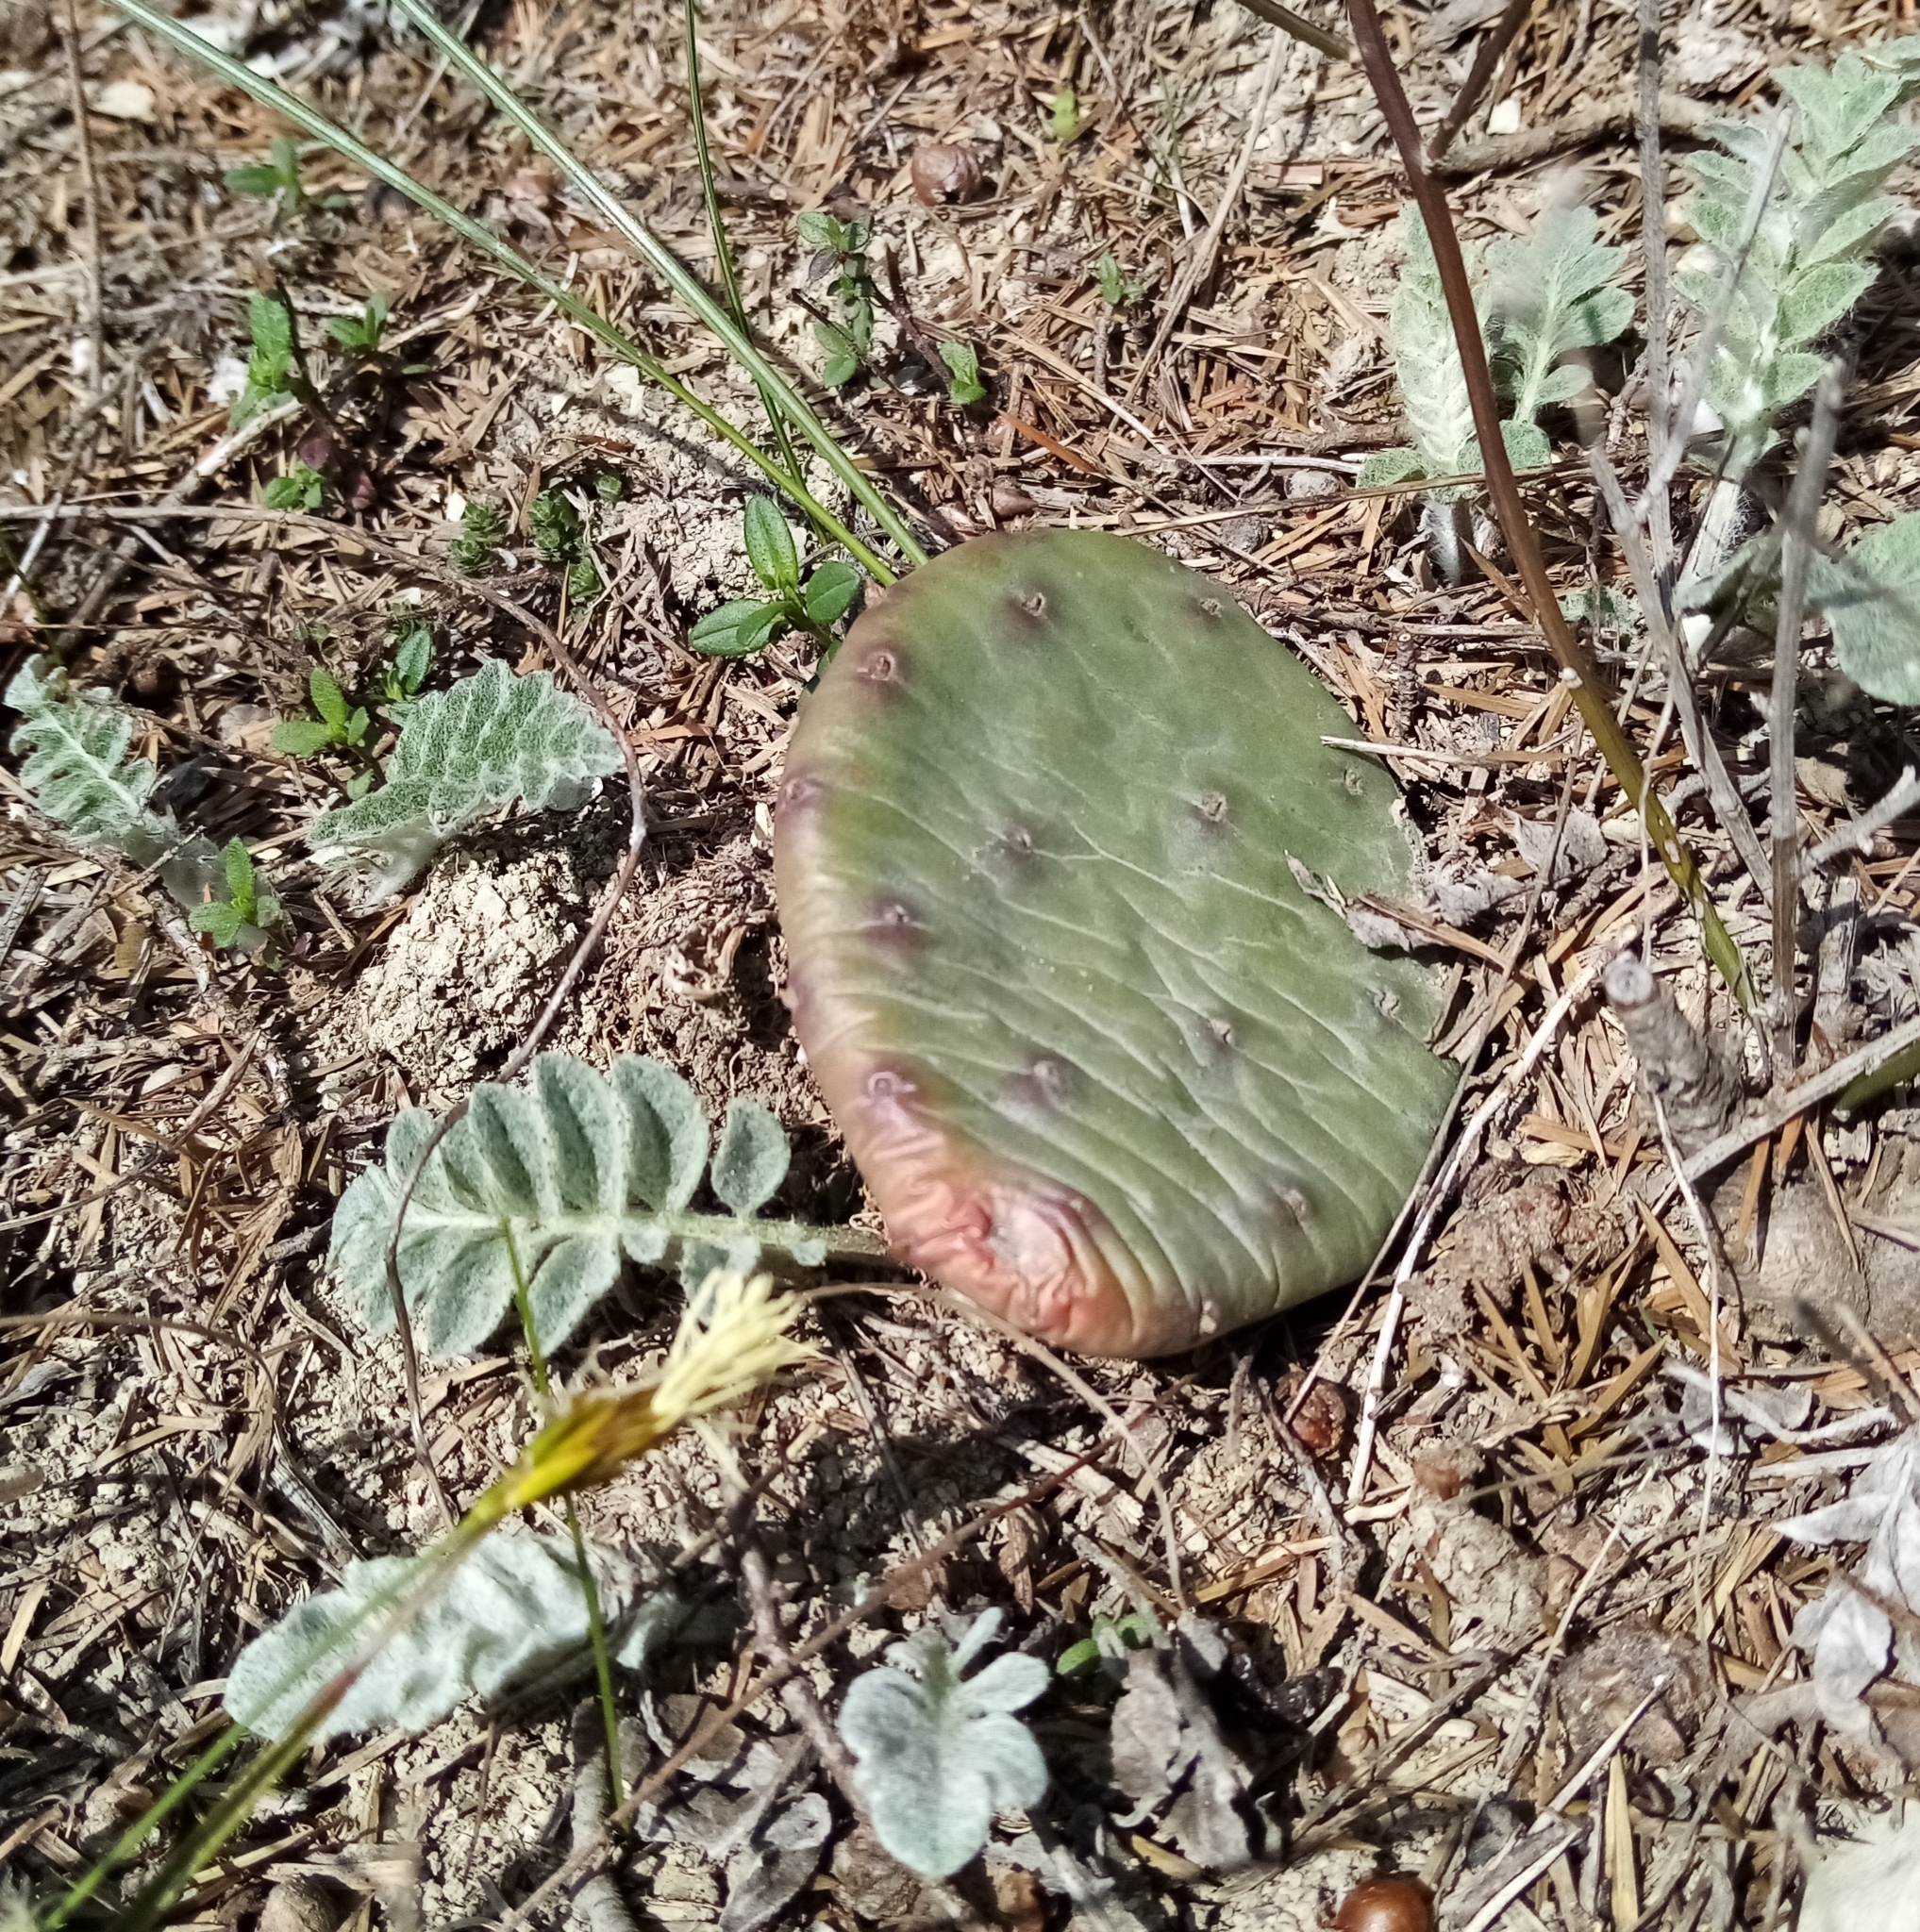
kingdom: Plantae
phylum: Tracheophyta
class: Magnoliopsida
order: Caryophyllales
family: Cactaceae
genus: Opuntia
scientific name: Opuntia humifusa
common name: Eastern prickly-pear
